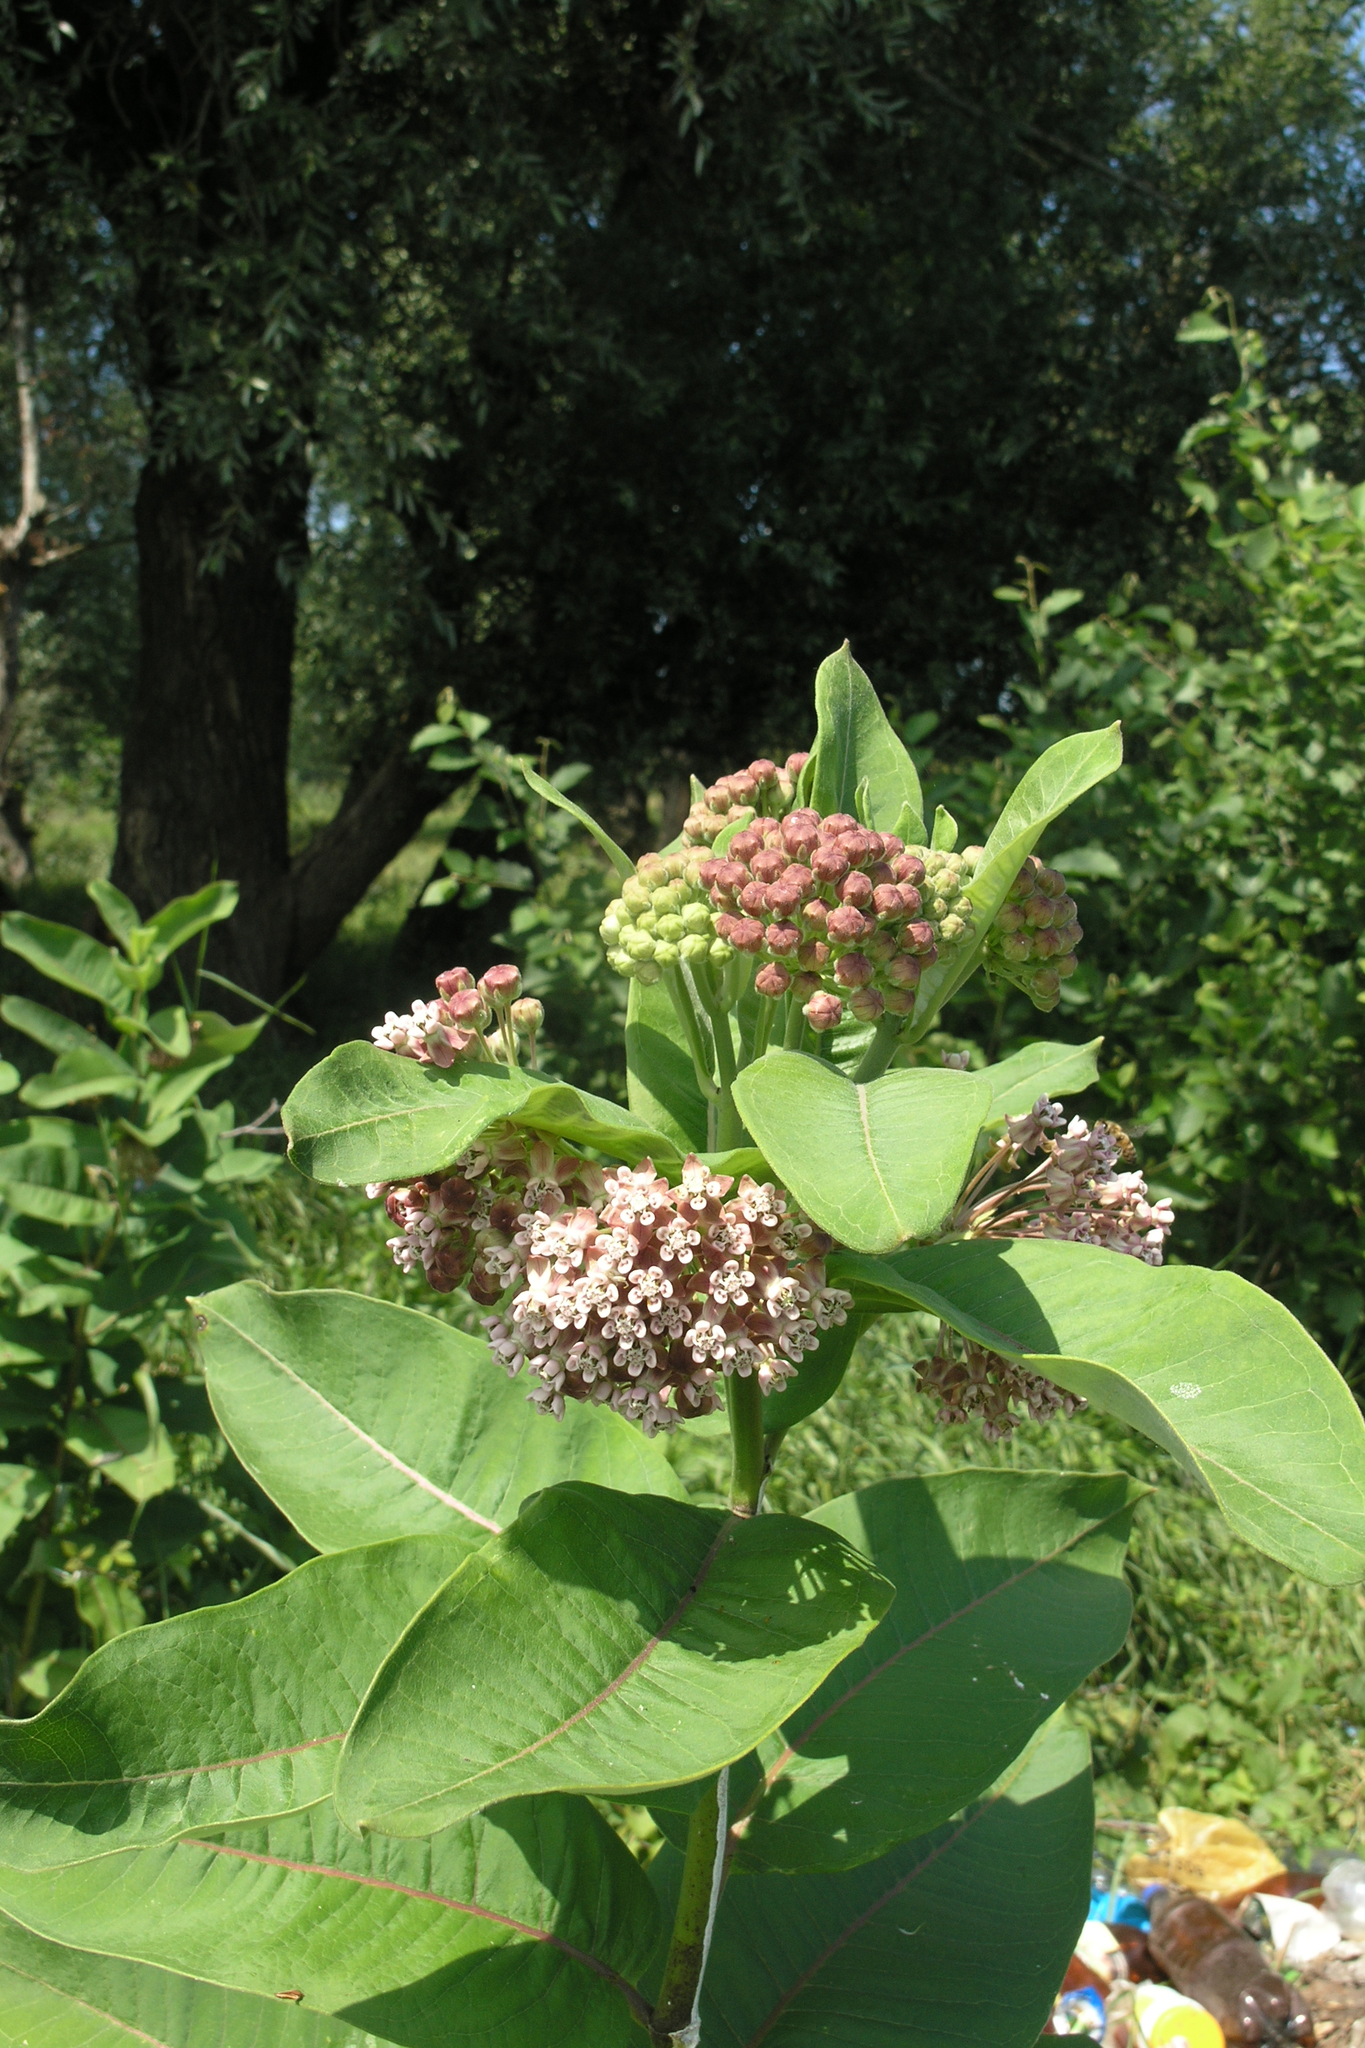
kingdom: Plantae
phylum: Tracheophyta
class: Magnoliopsida
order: Gentianales
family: Apocynaceae
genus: Asclepias
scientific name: Asclepias syriaca
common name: Common milkweed
